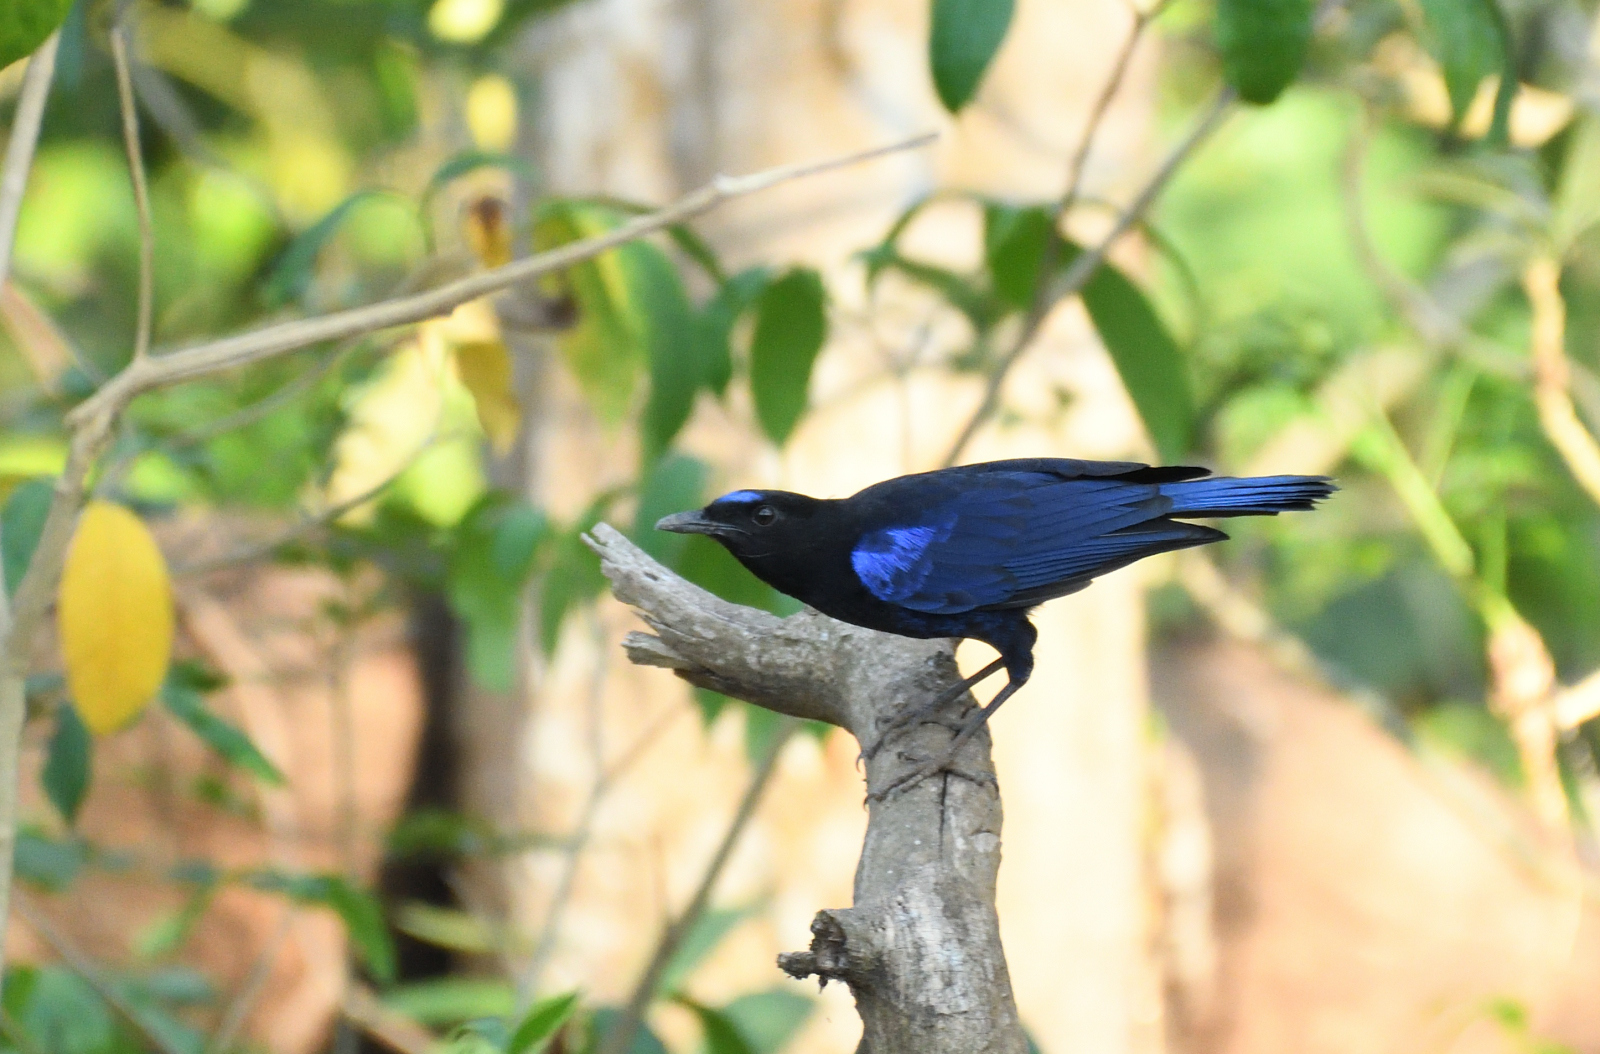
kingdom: Animalia
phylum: Chordata
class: Aves
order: Passeriformes
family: Muscicapidae
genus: Myophonus
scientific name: Myophonus horsfieldii
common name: Malabar whistling-thrush
